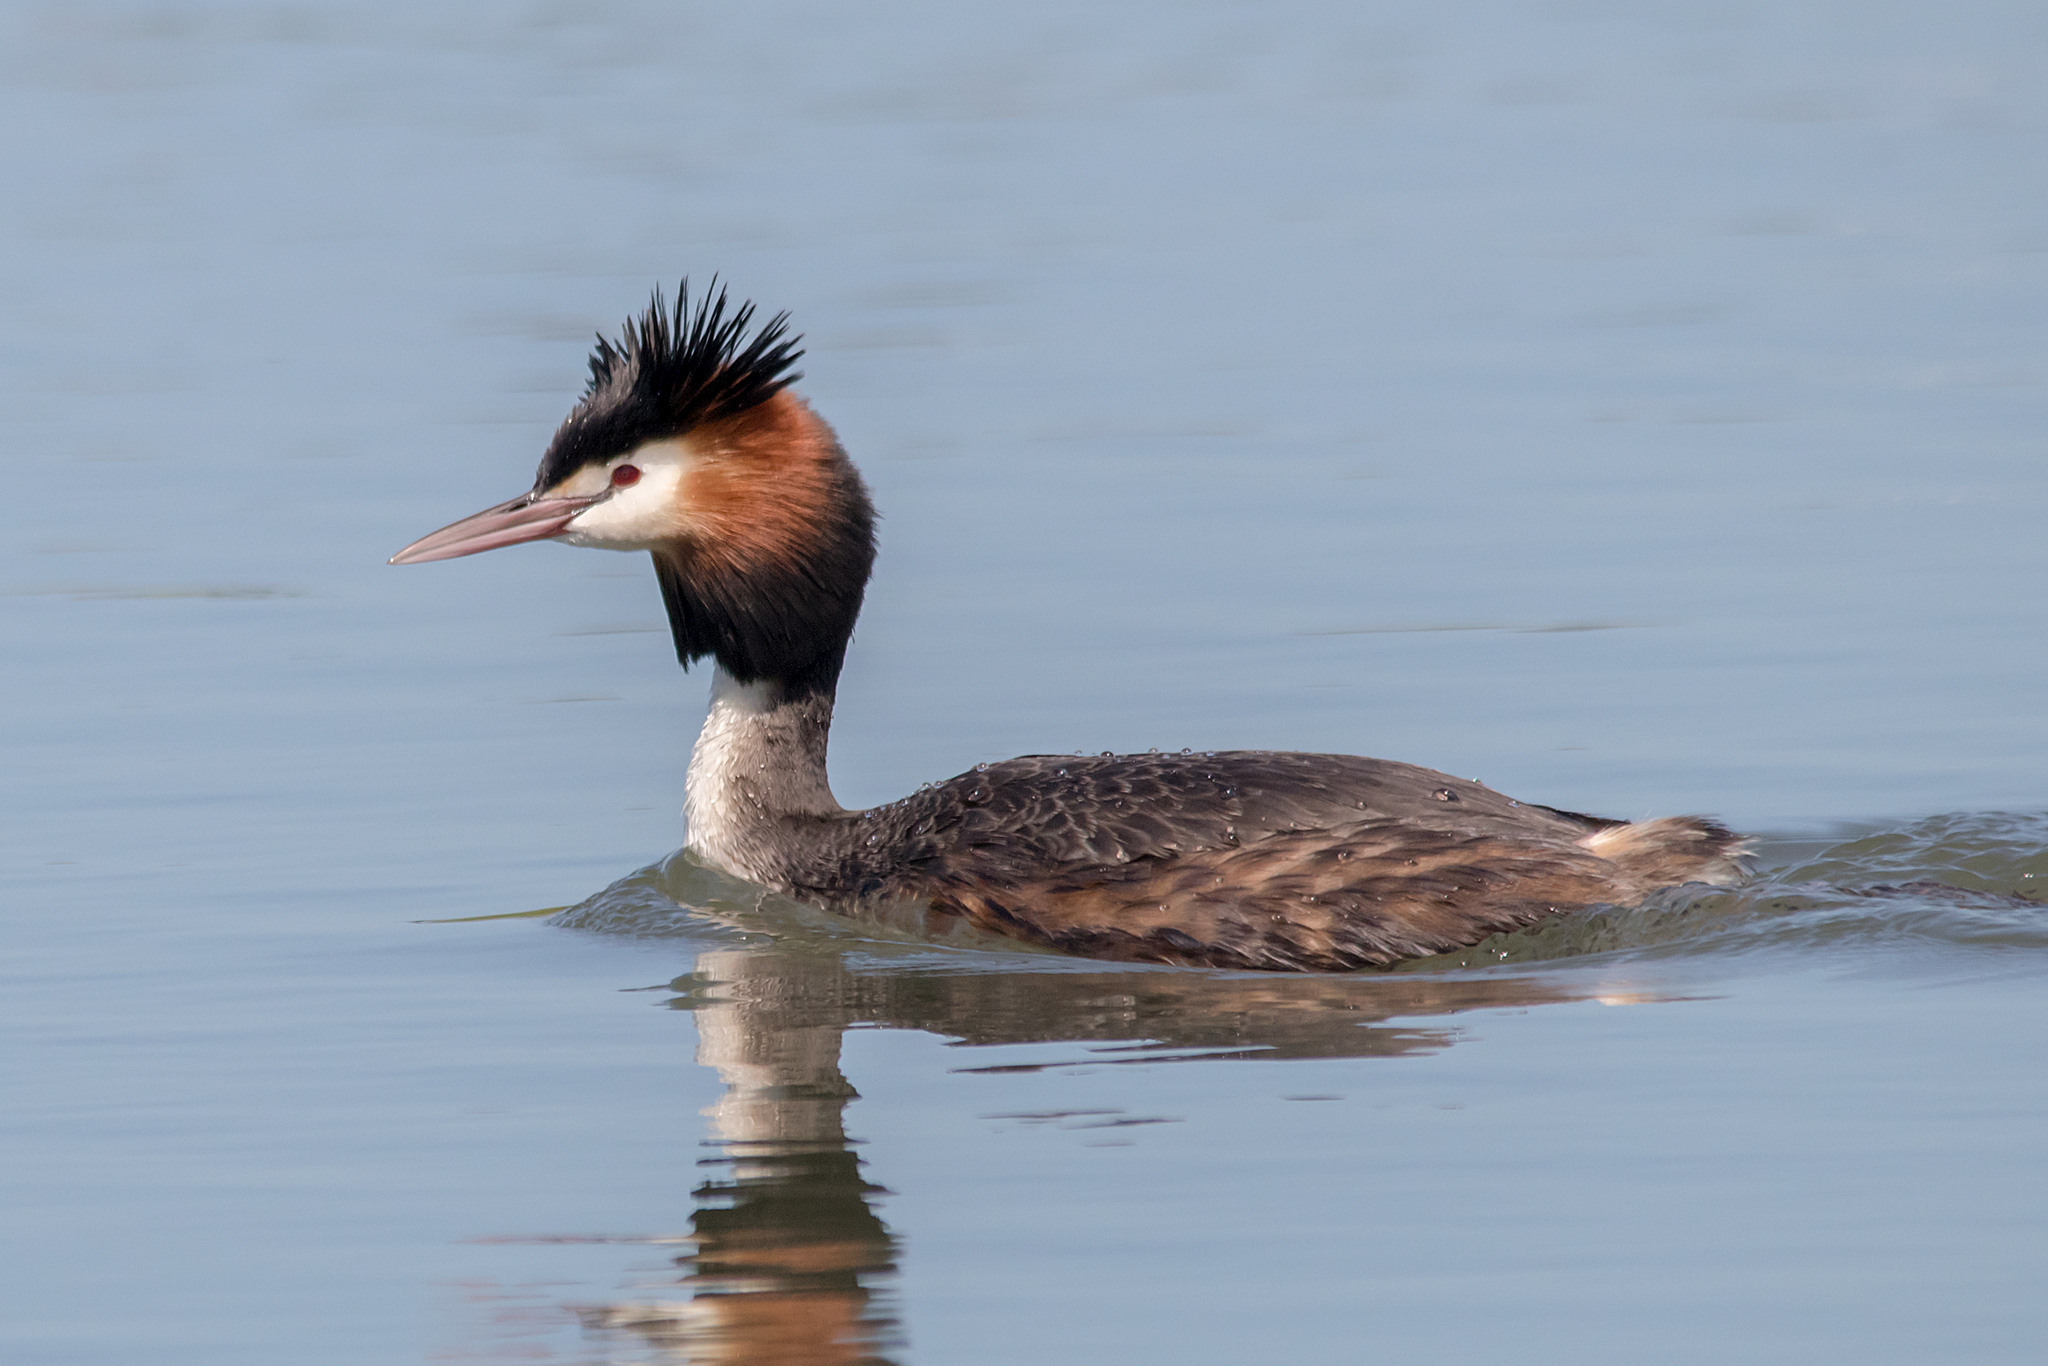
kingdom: Animalia
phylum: Chordata
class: Aves
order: Podicipediformes
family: Podicipedidae
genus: Podiceps
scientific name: Podiceps cristatus
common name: Great crested grebe
